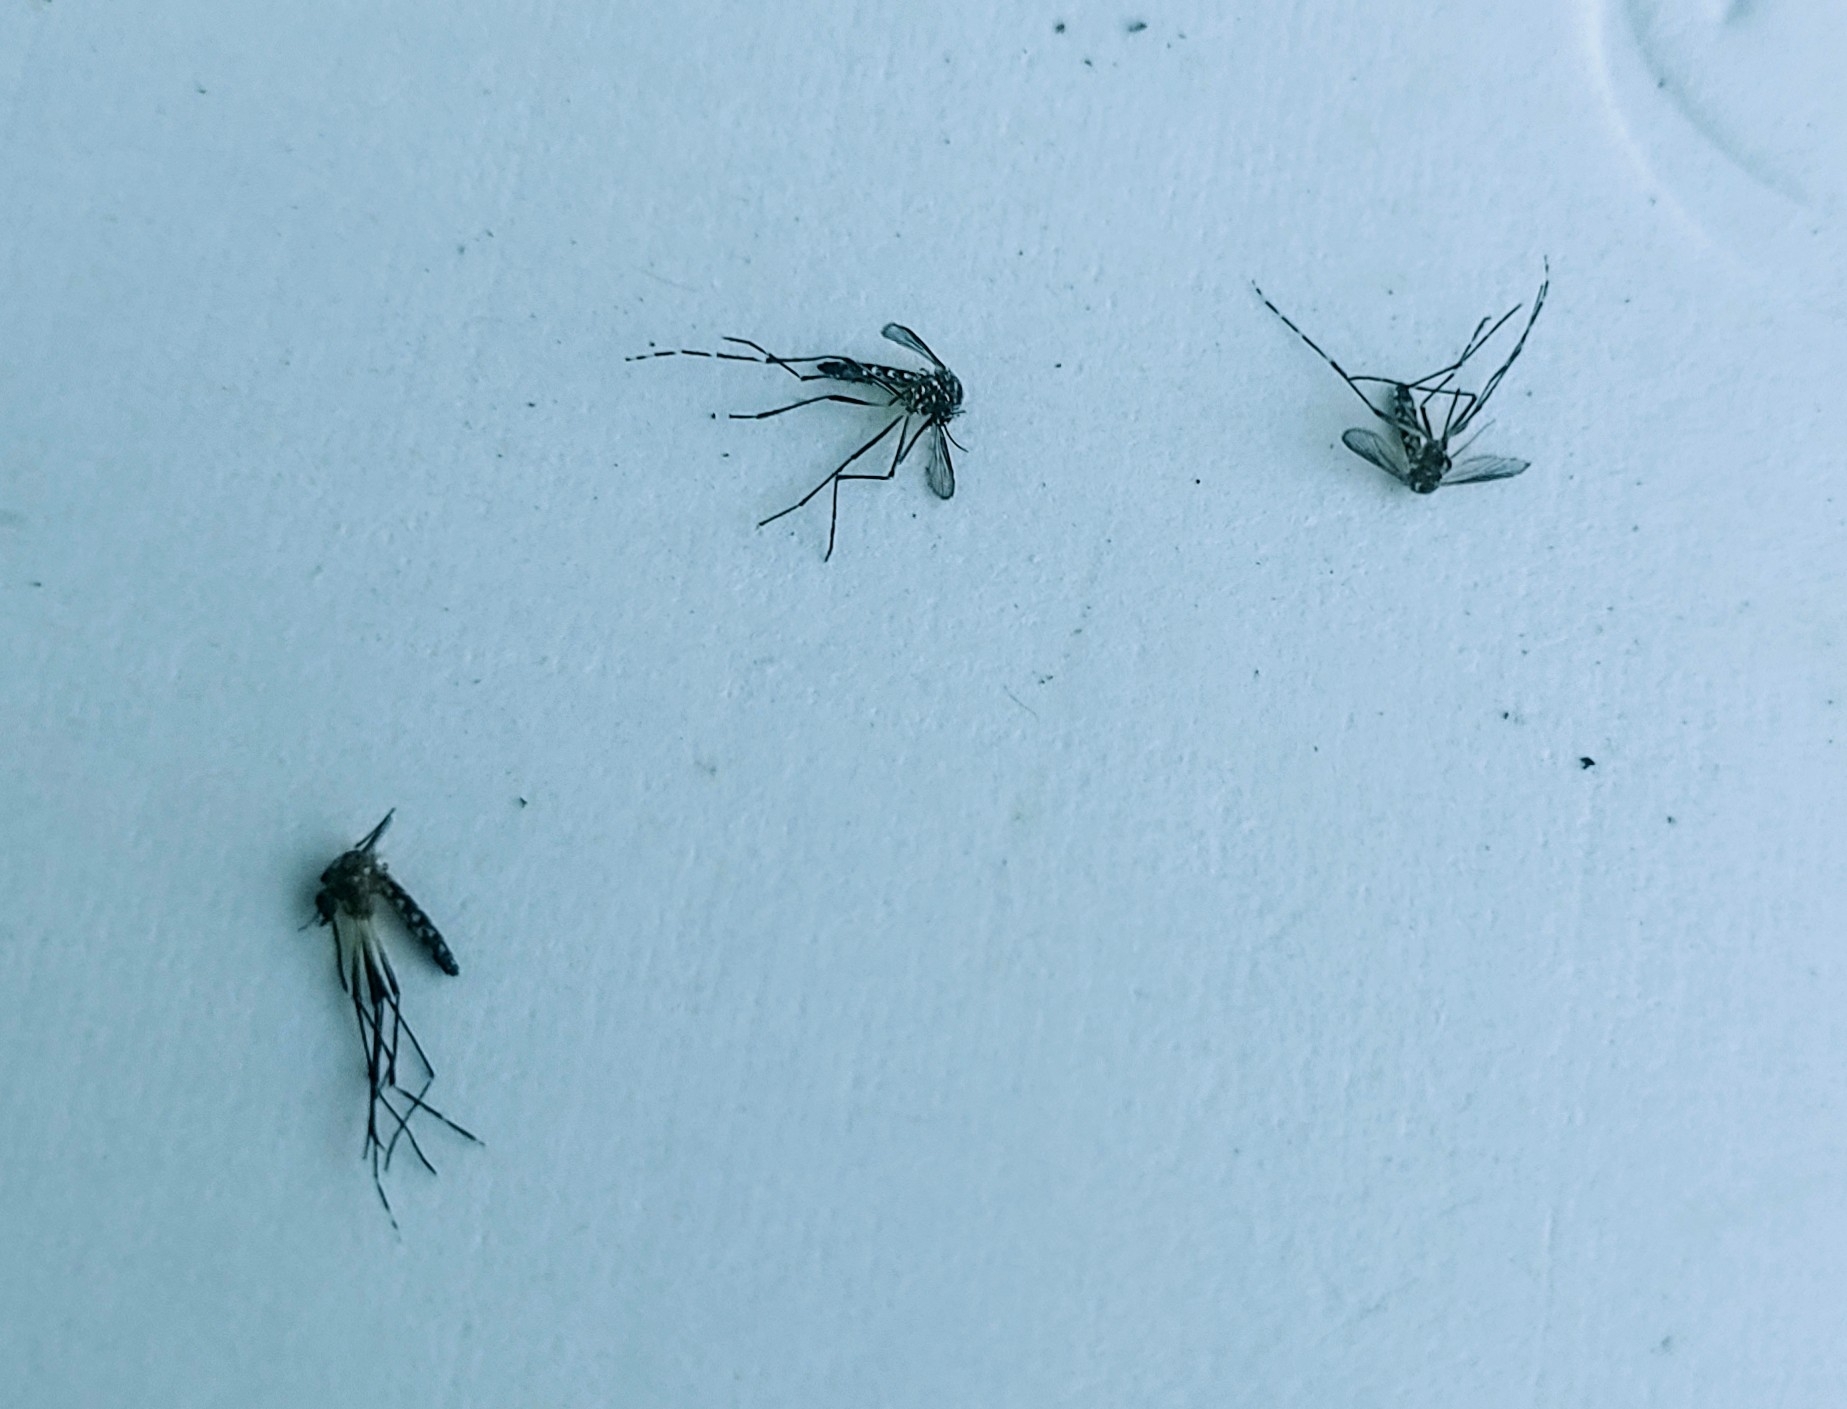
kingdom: Animalia
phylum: Arthropoda
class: Insecta
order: Diptera
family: Culicidae
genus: Aedes
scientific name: Aedes aegypti
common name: Yellow fever mosquito
